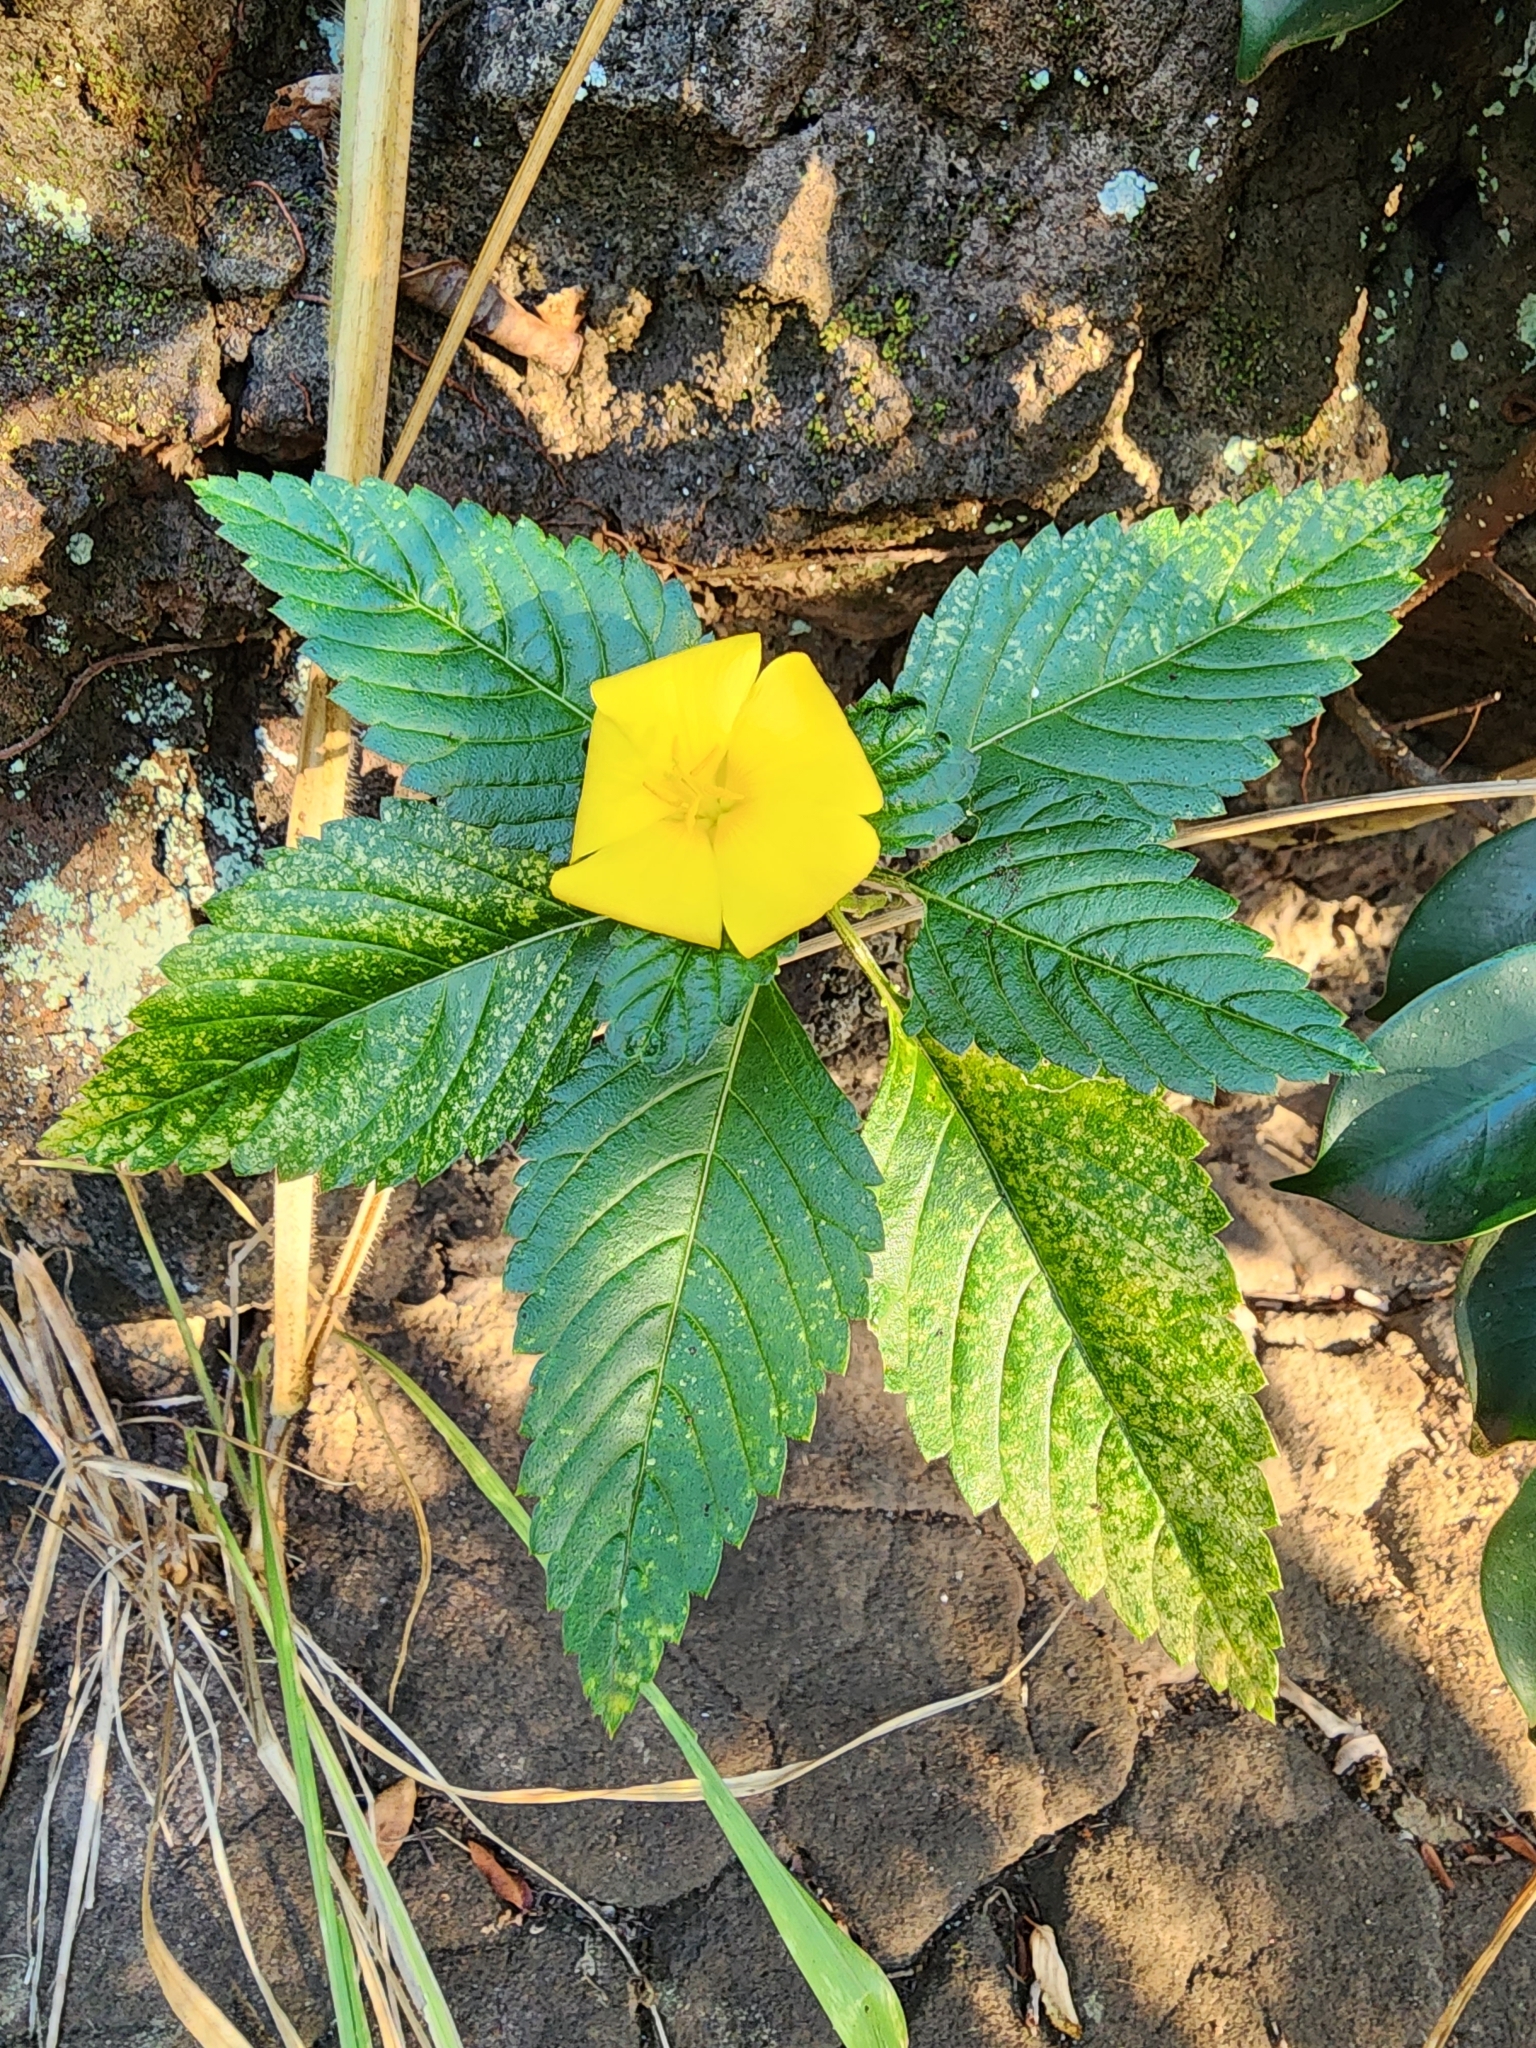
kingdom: Plantae
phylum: Tracheophyta
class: Magnoliopsida
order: Malpighiales
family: Turneraceae
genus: Turnera
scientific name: Turnera ulmifolia
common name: Ramgoat dashalong
